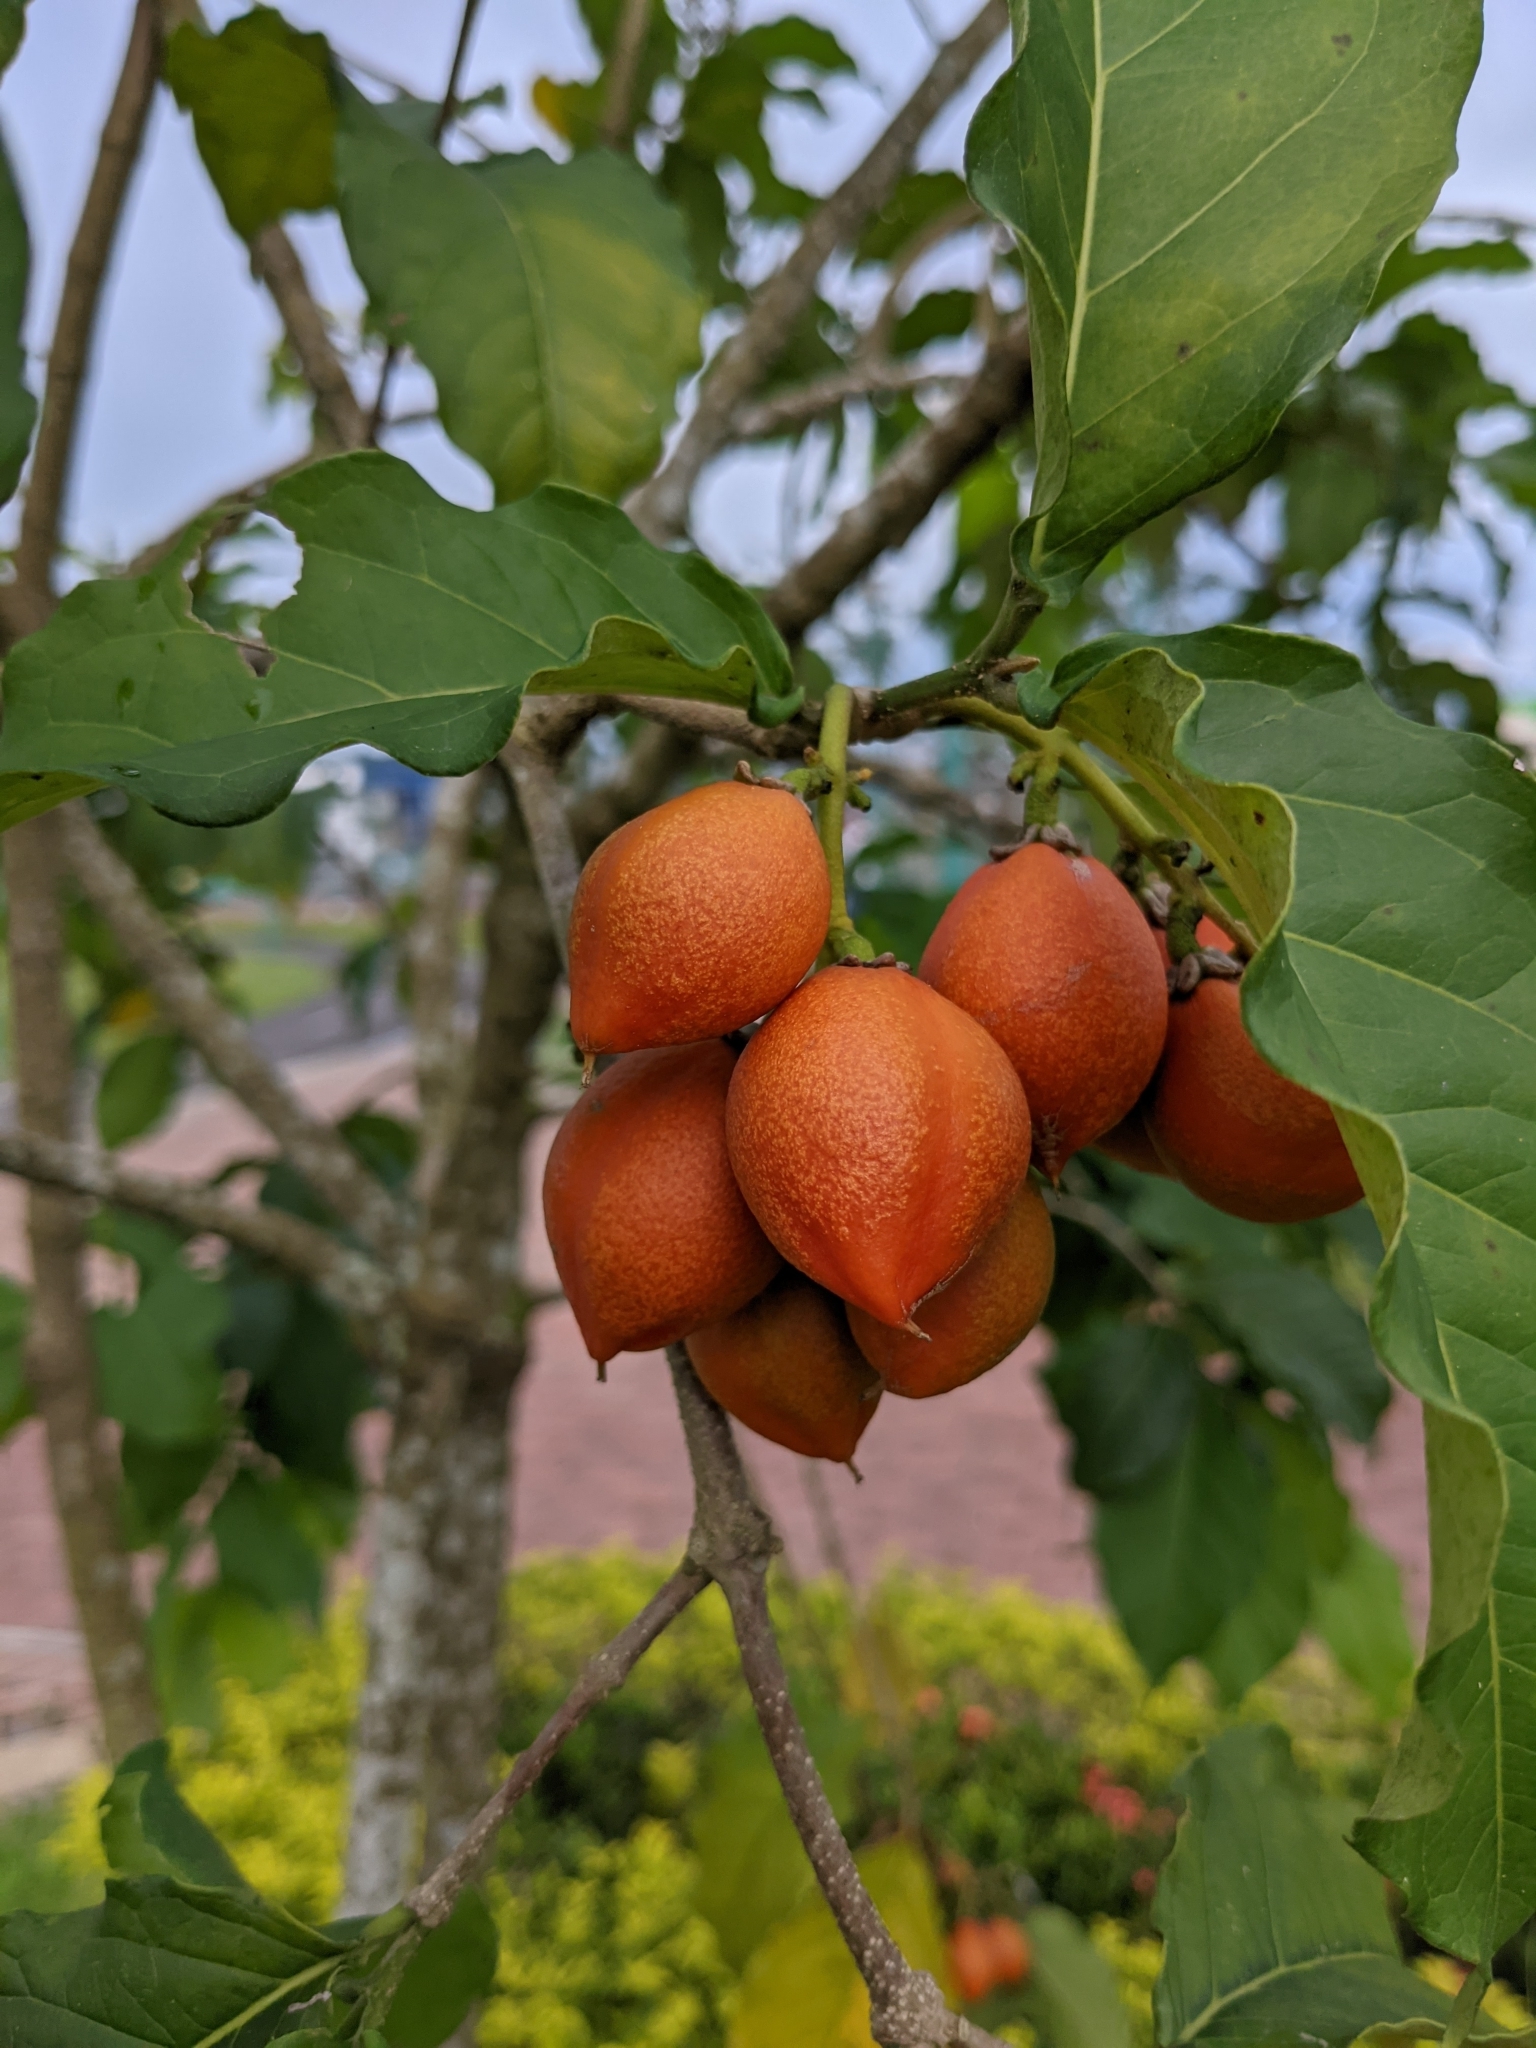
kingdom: Plantae
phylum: Tracheophyta
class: Magnoliopsida
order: Malpighiales
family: Malpighiaceae
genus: Bunchosia
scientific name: Bunchosia argentea
